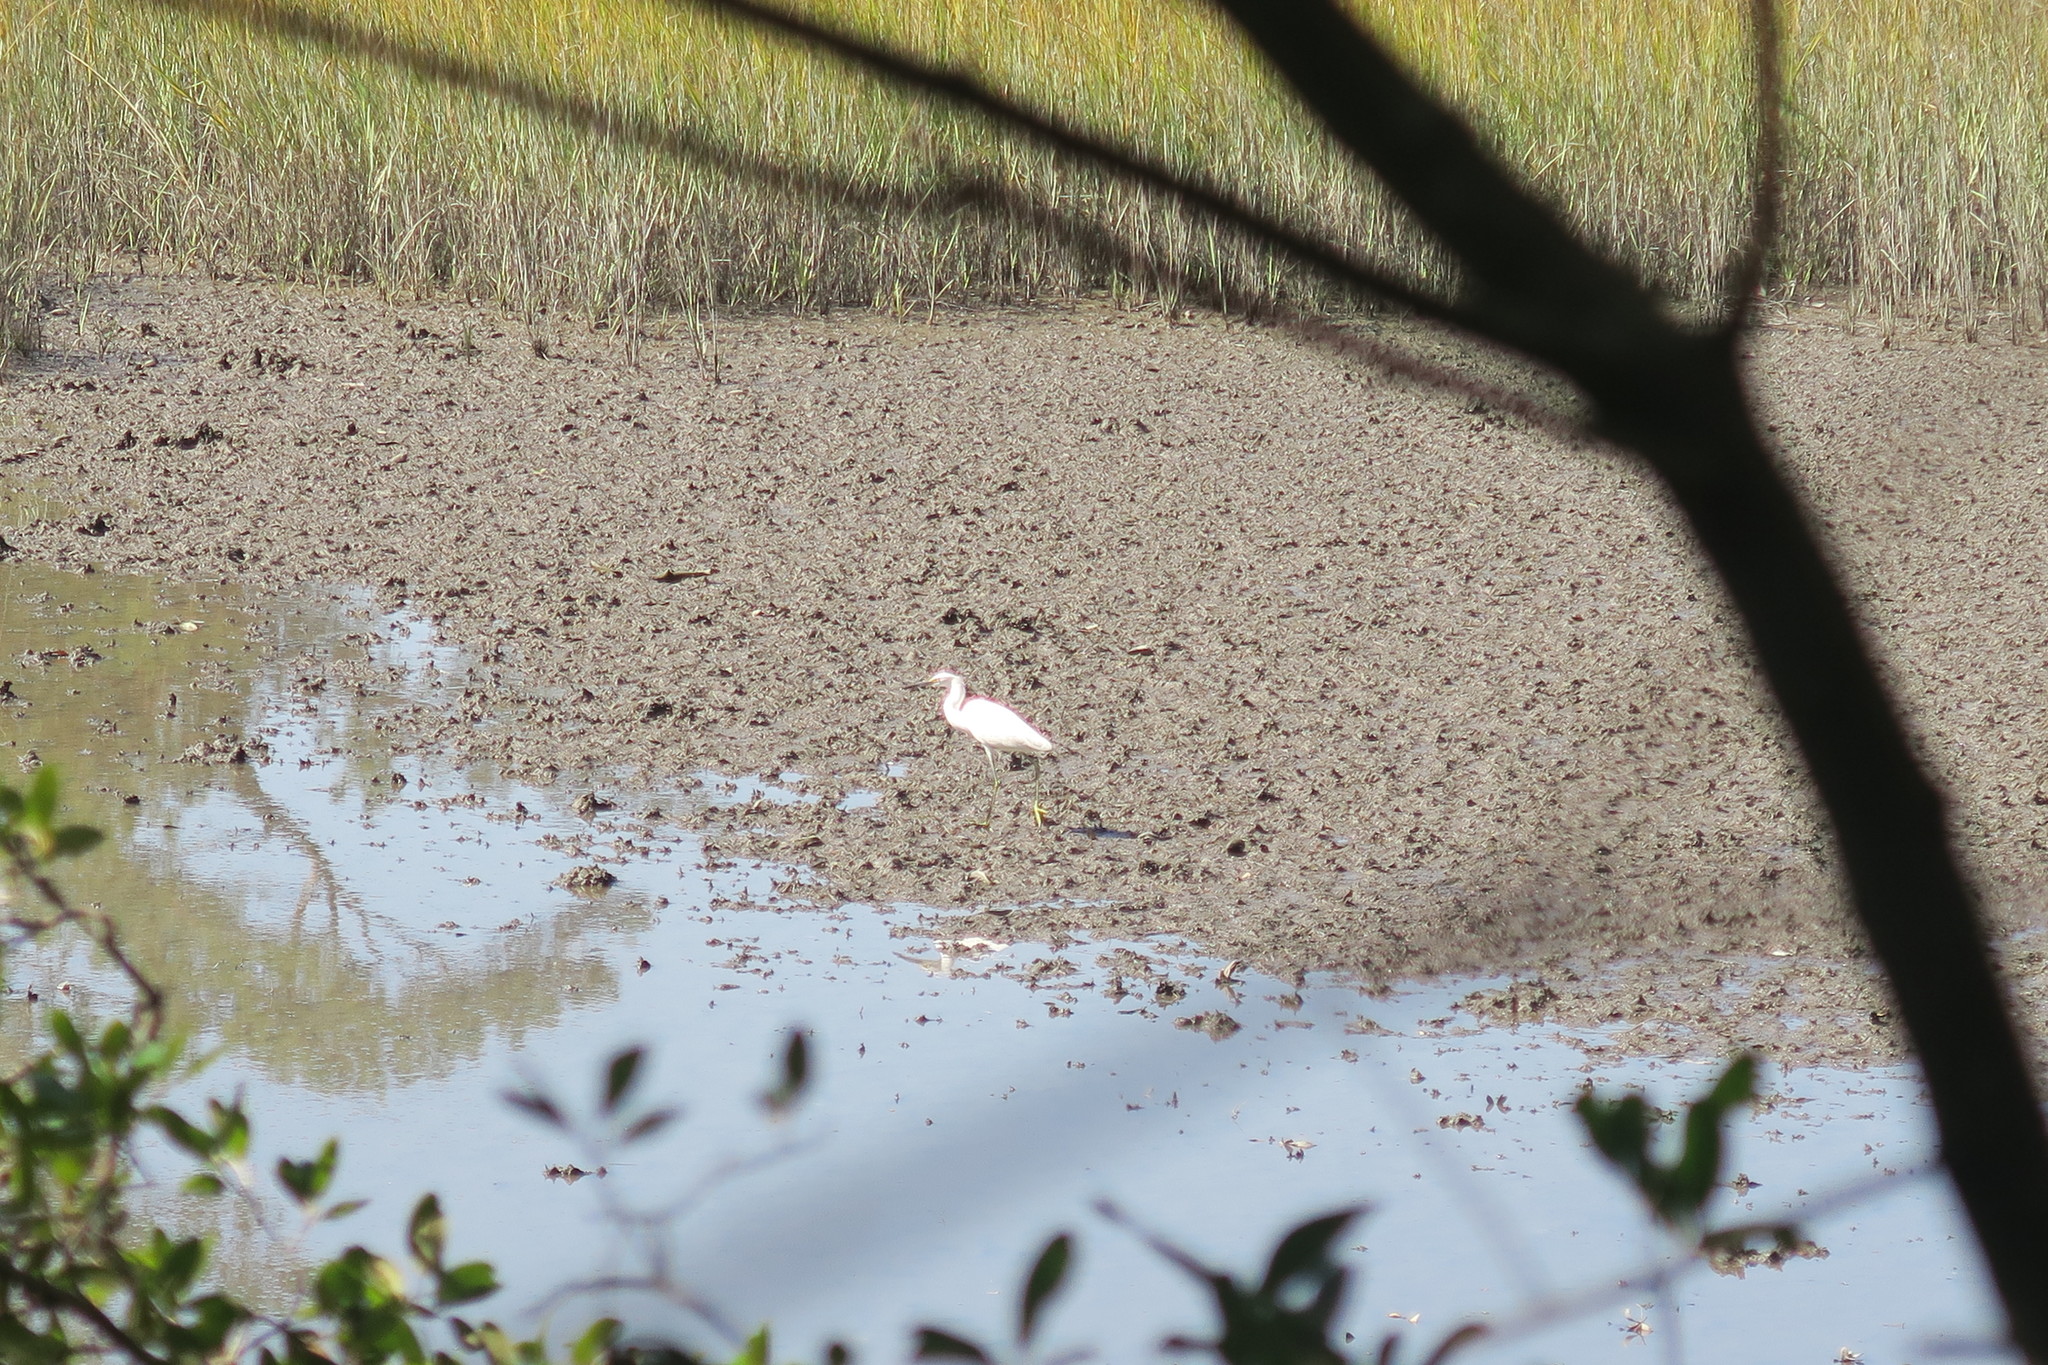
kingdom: Animalia
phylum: Chordata
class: Aves
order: Pelecaniformes
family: Ardeidae
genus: Egretta
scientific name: Egretta thula
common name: Snowy egret
